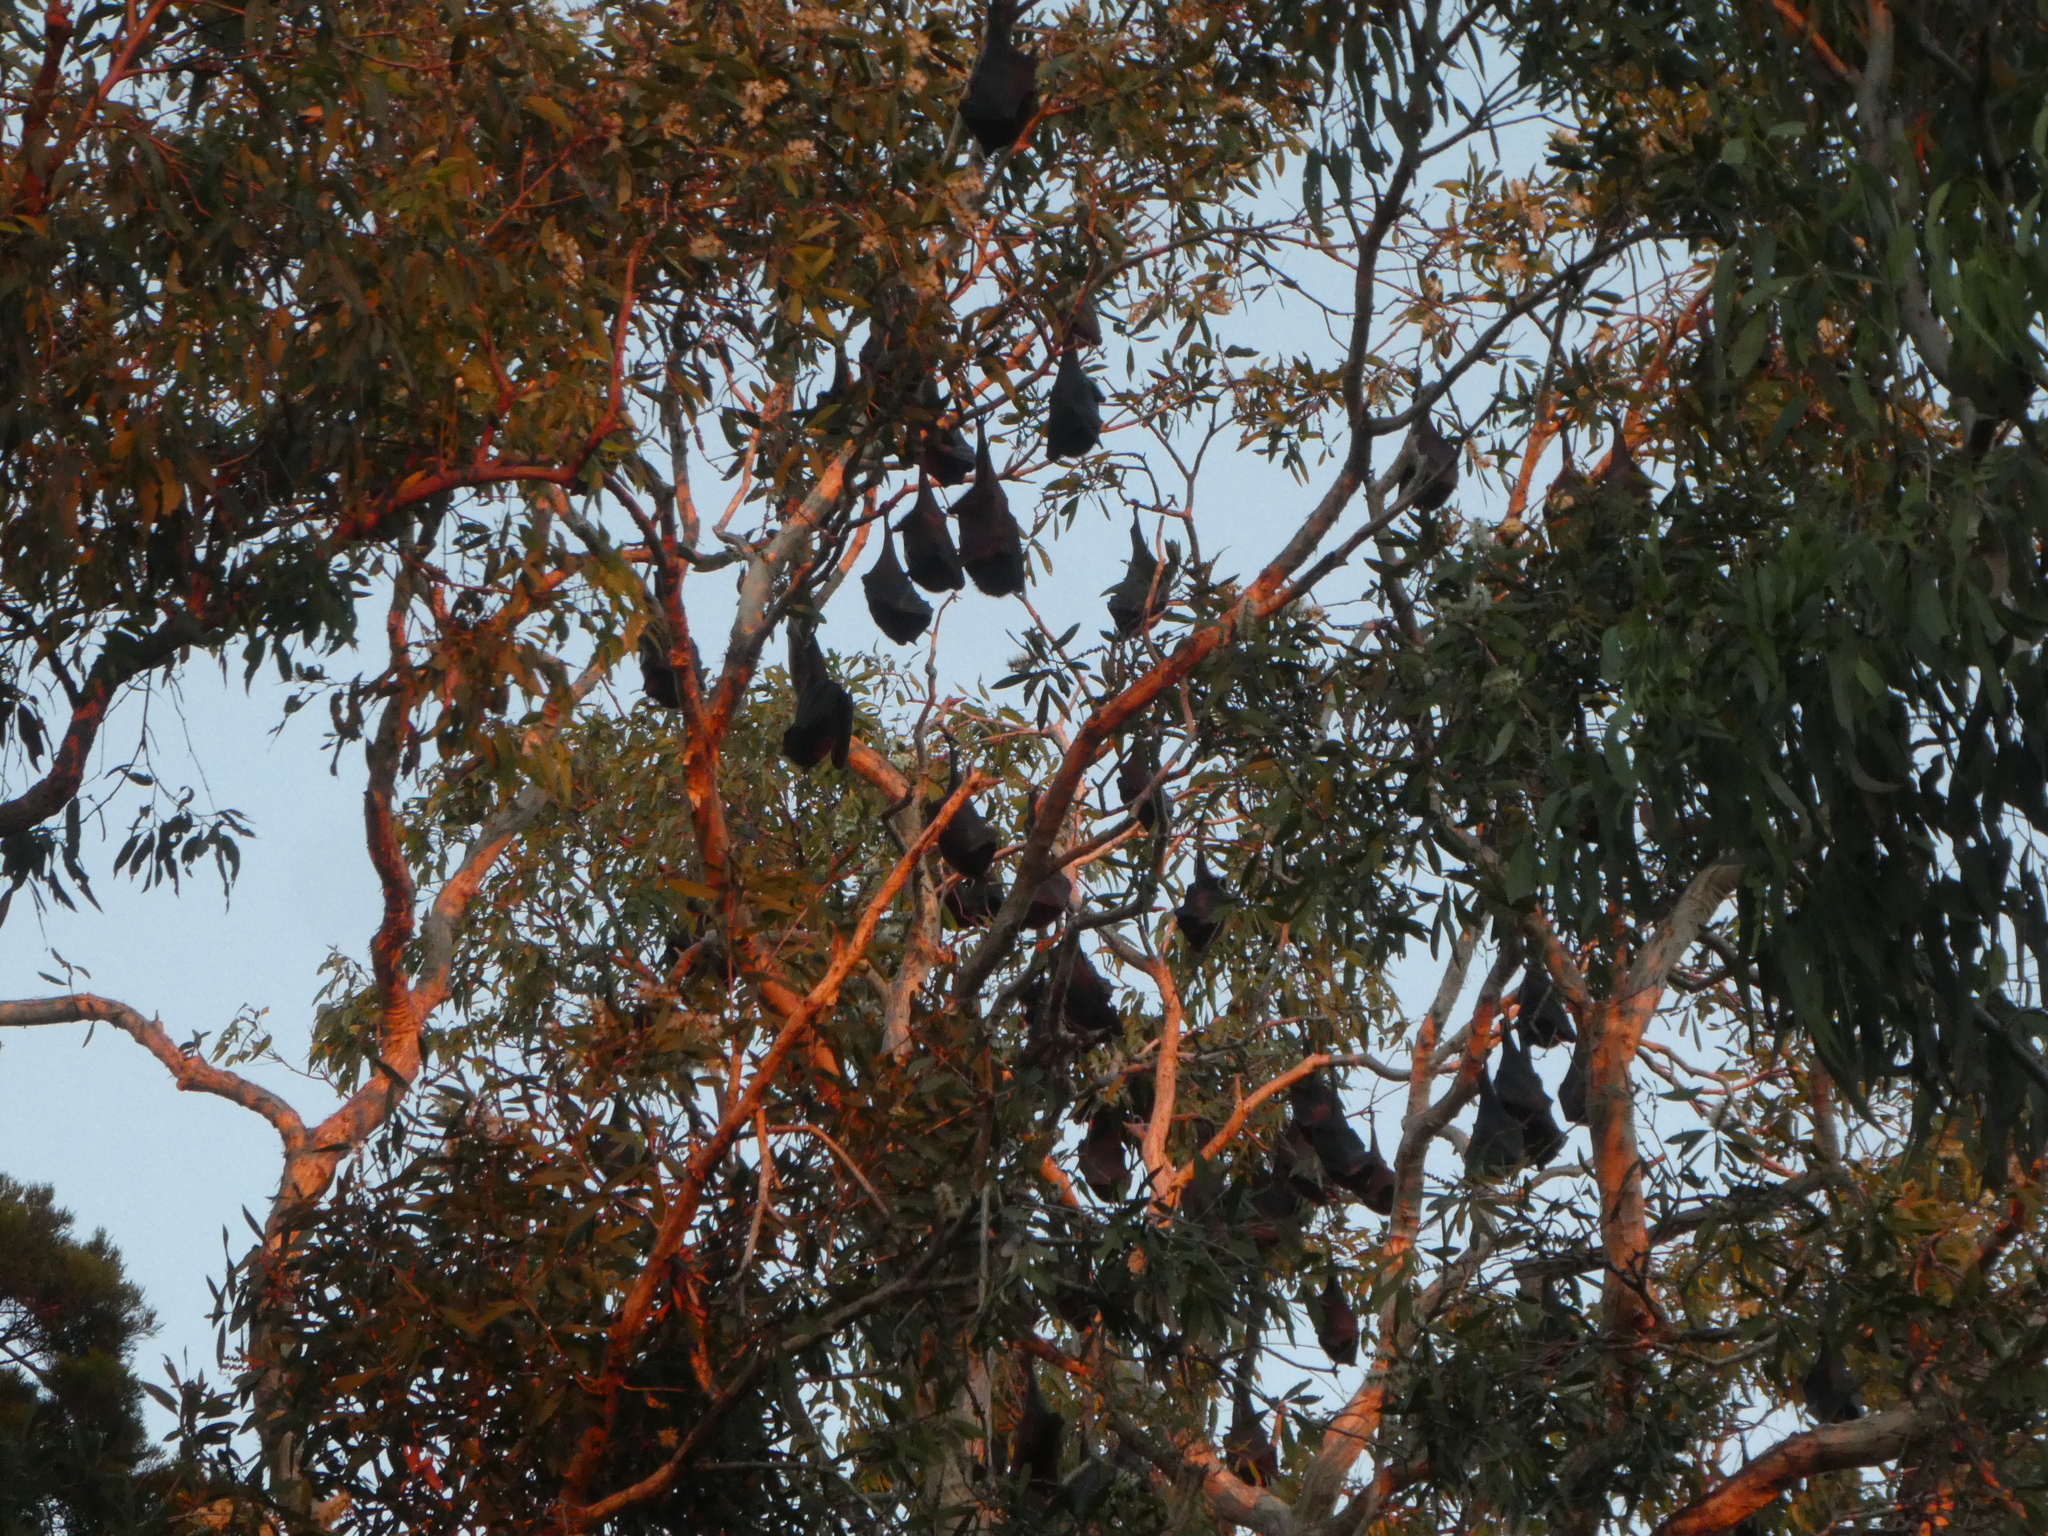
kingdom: Animalia
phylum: Chordata
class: Mammalia
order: Chiroptera
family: Pteropodidae
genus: Pteropus
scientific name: Pteropus alecto
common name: Black flying fox
